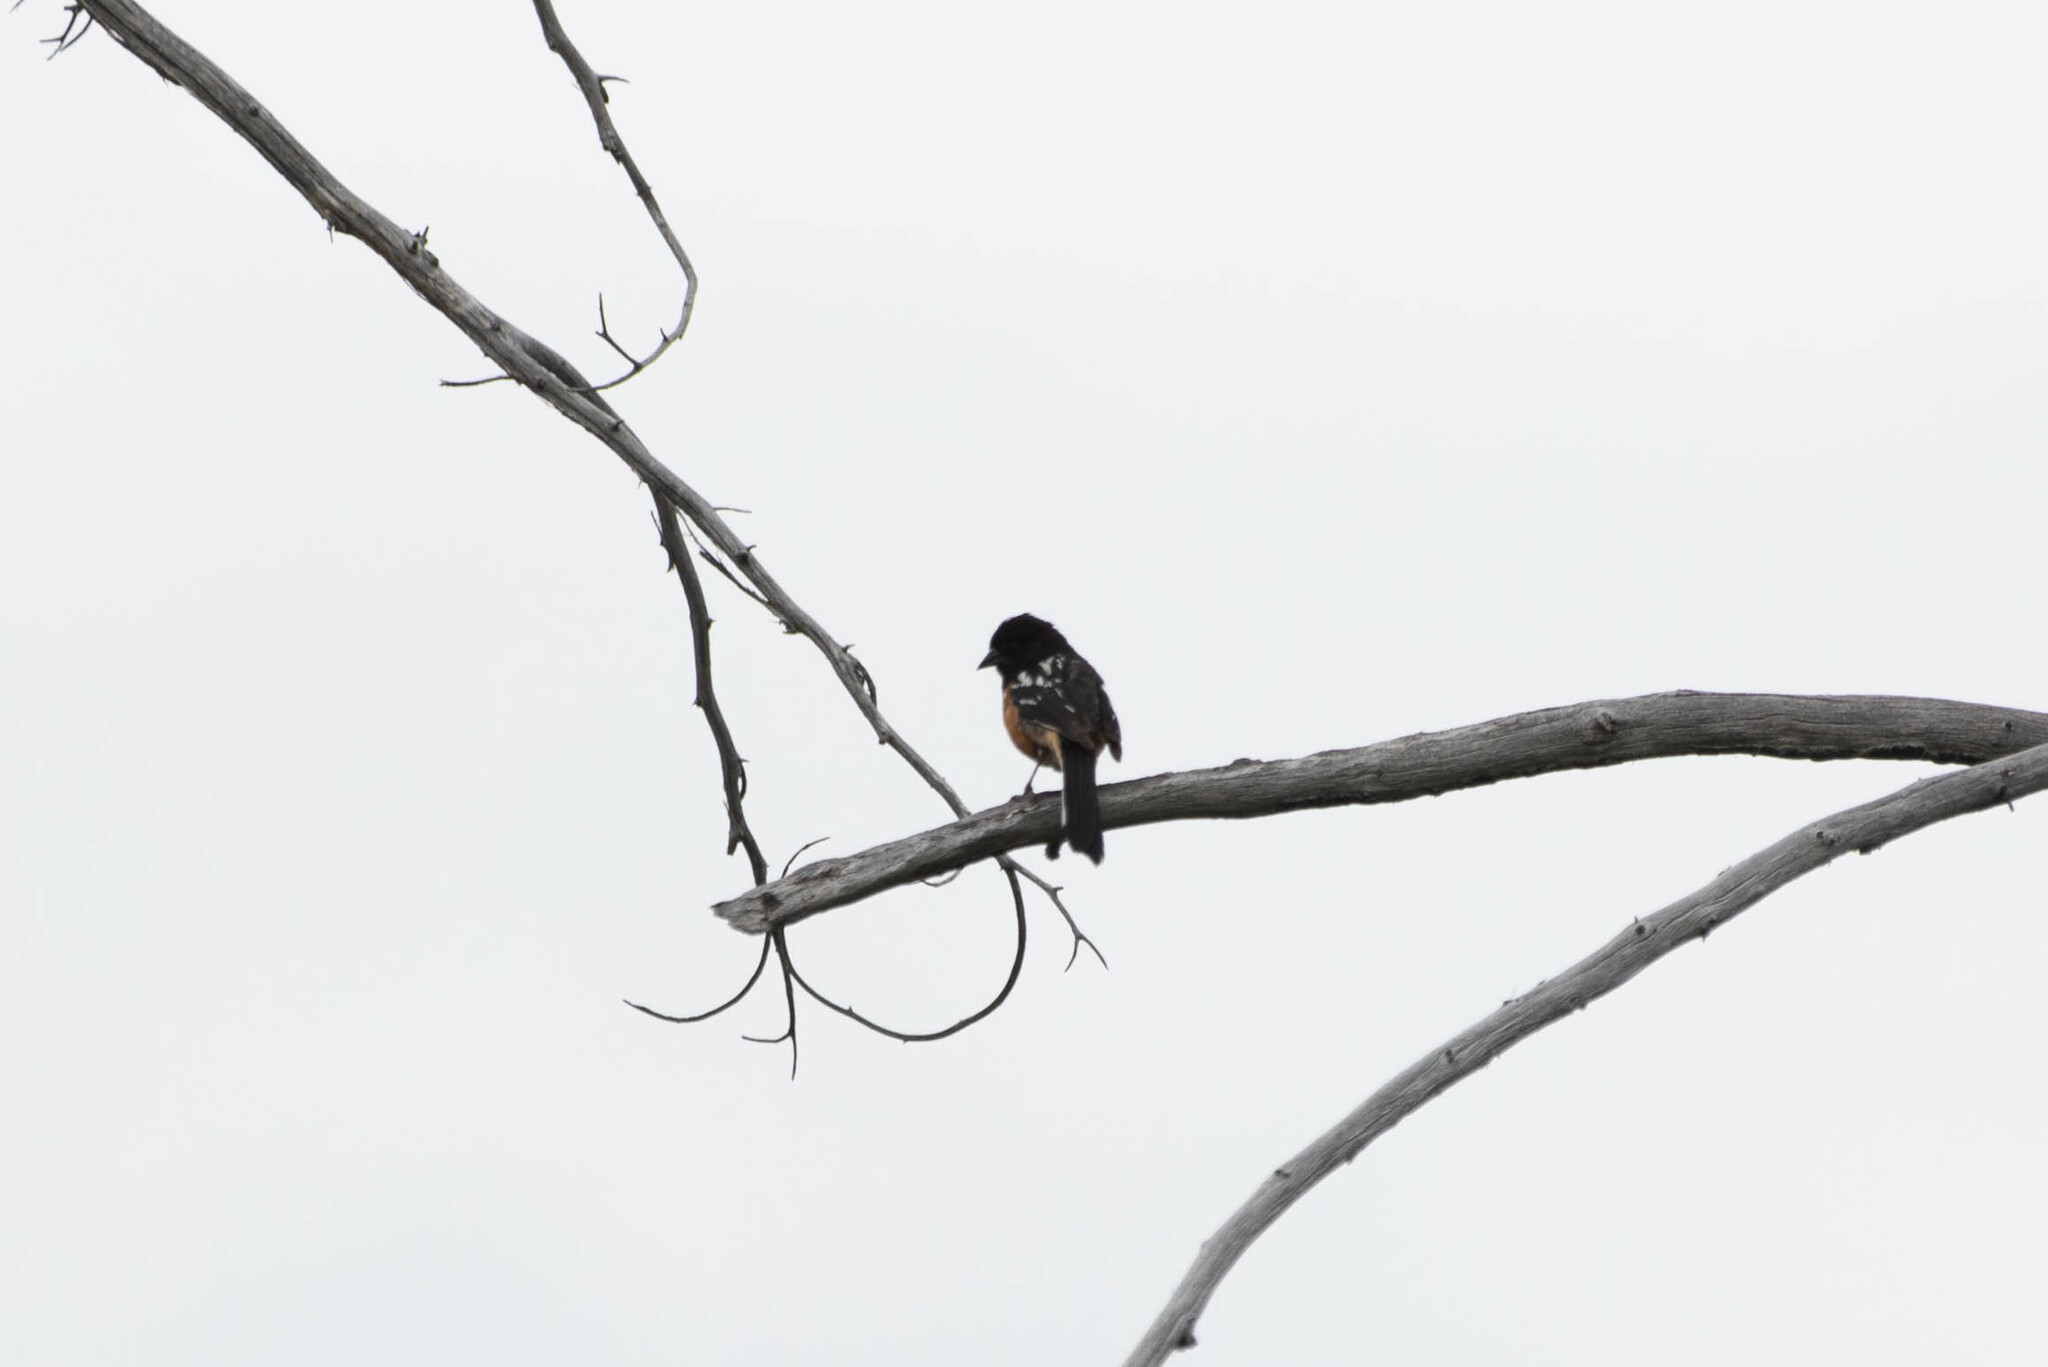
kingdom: Animalia
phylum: Chordata
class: Aves
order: Passeriformes
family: Passerellidae
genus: Pipilo
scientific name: Pipilo maculatus
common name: Spotted towhee
